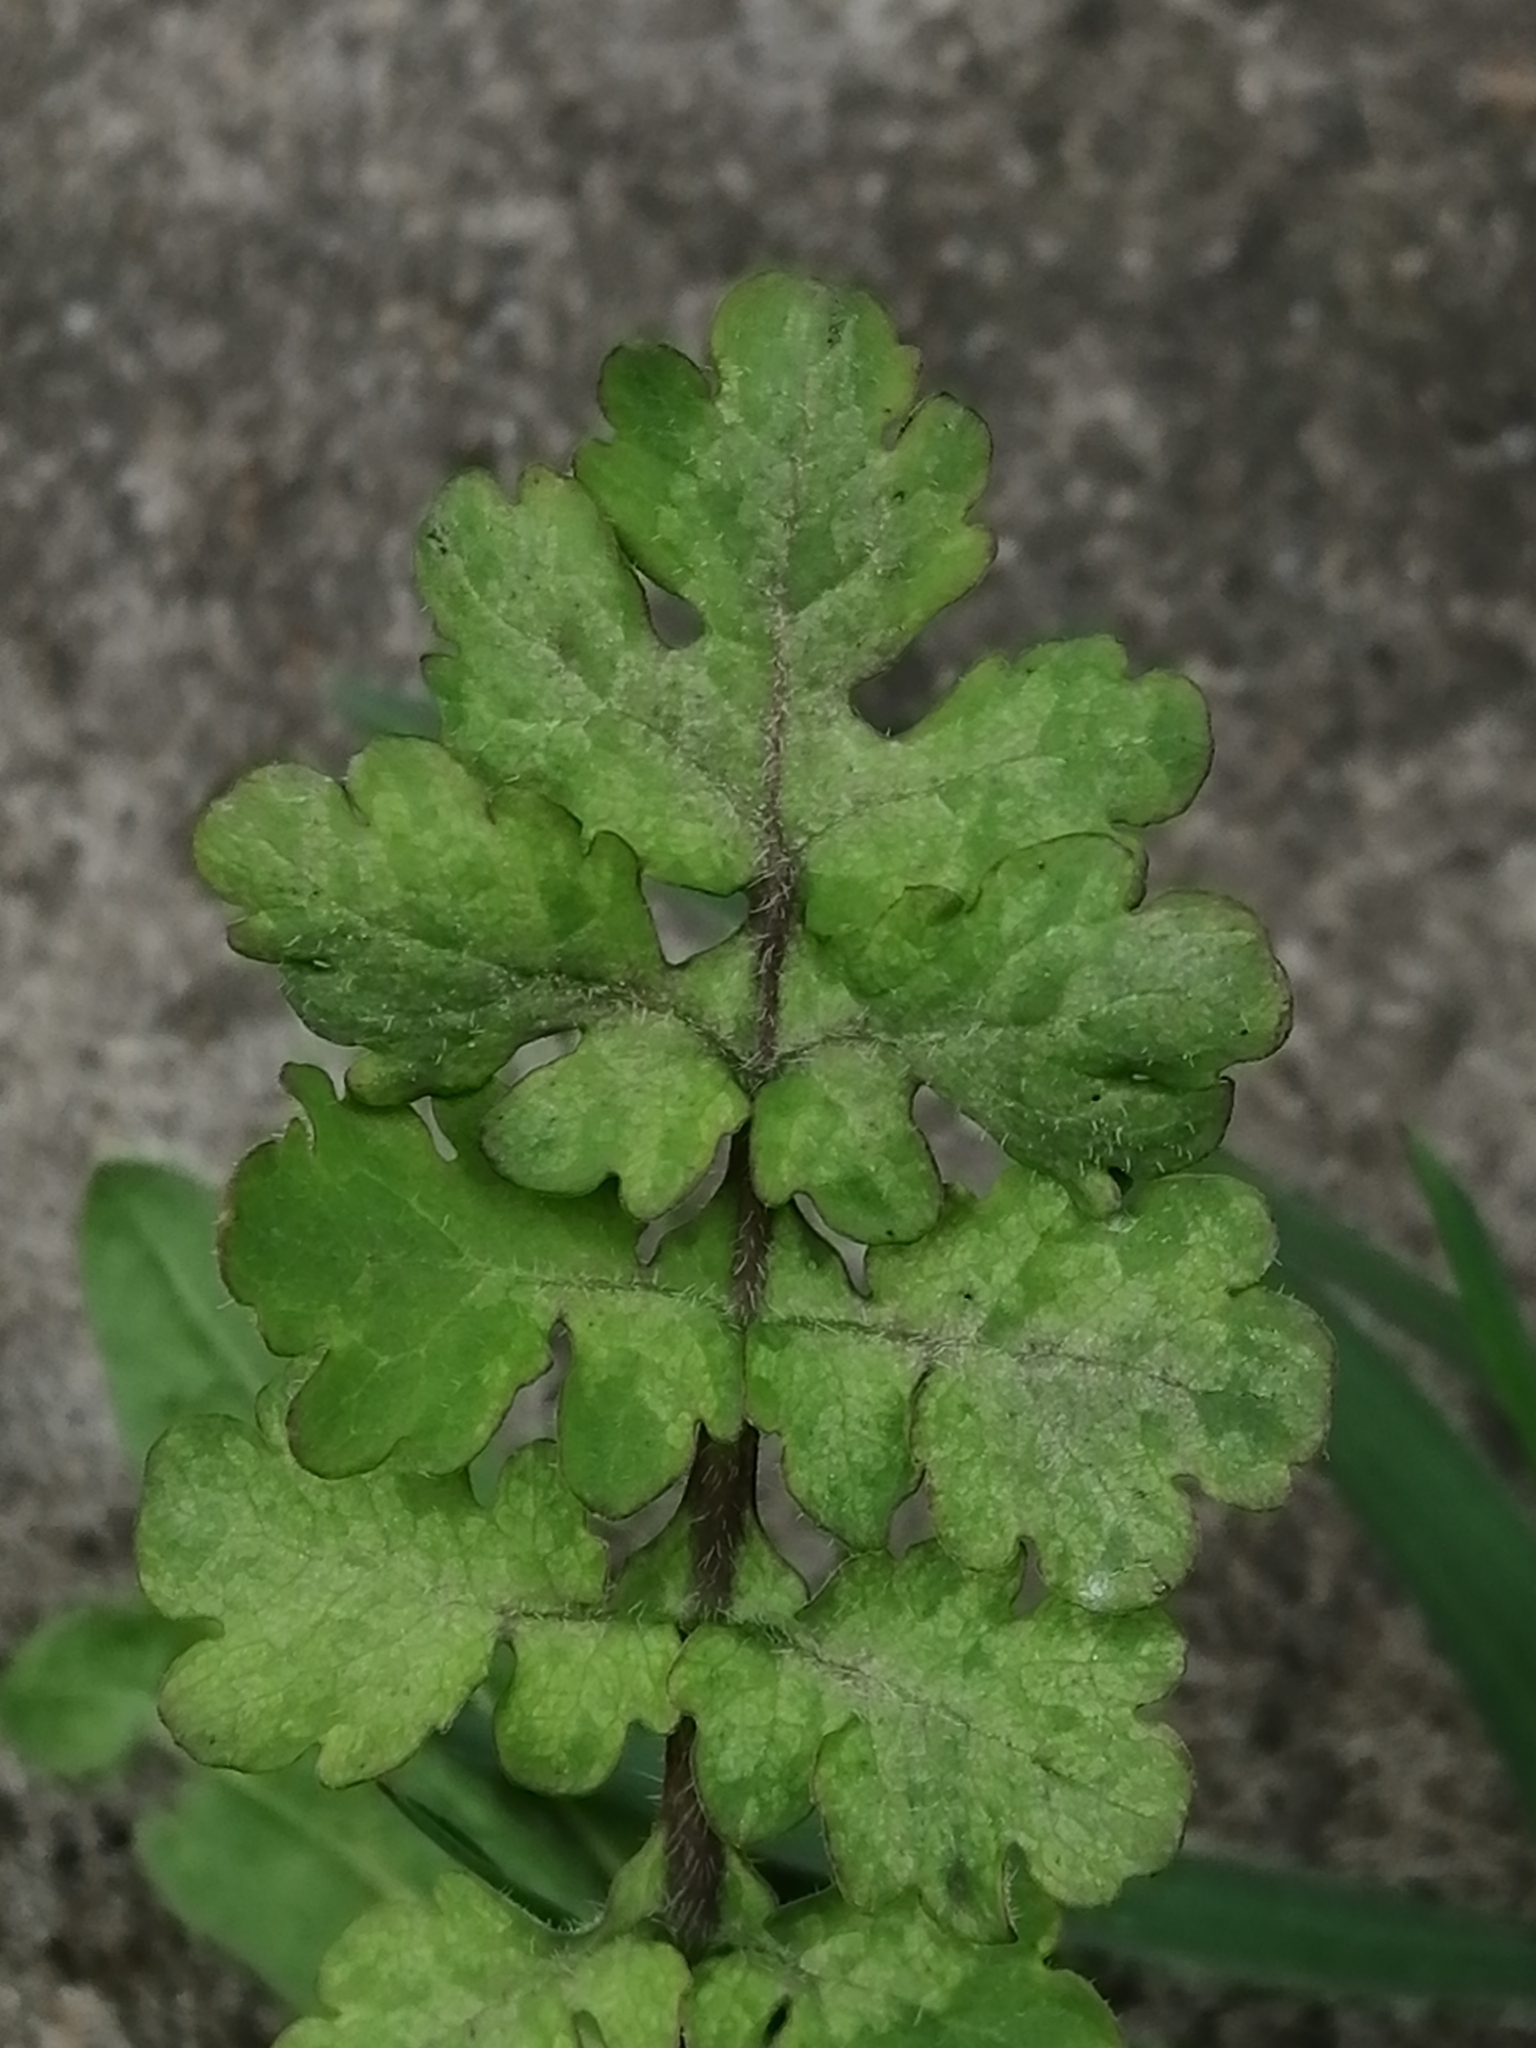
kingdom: Plantae
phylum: Tracheophyta
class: Magnoliopsida
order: Ranunculales
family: Papaveraceae
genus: Chelidonium
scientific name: Chelidonium majus
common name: Greater celandine
